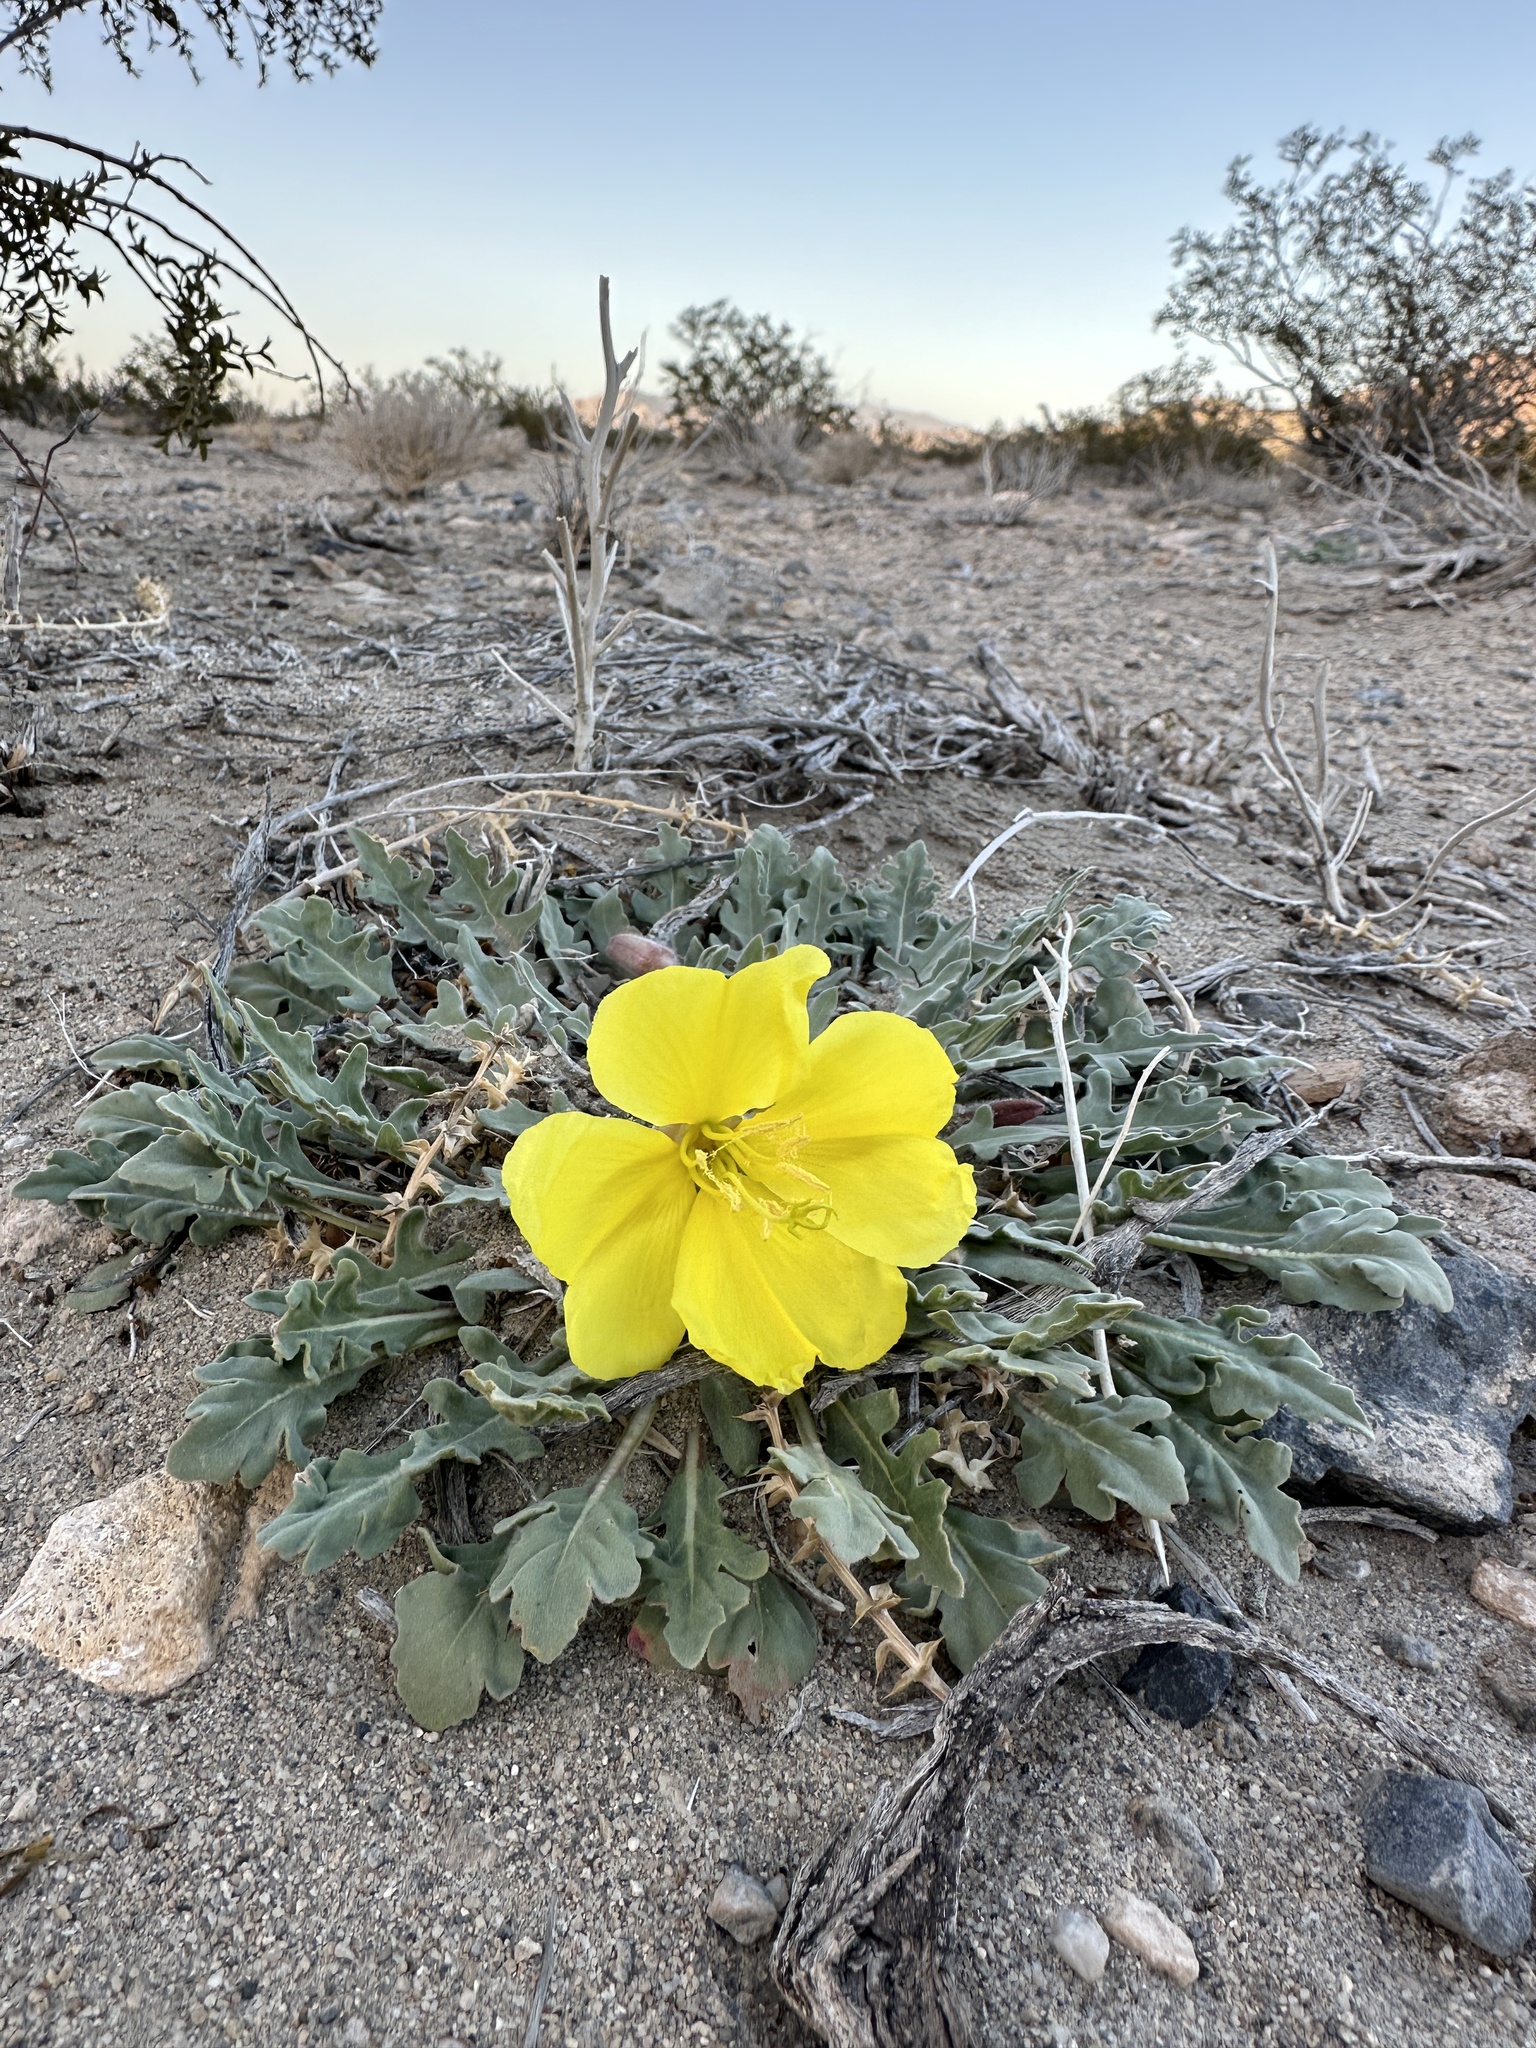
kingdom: Plantae
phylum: Tracheophyta
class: Magnoliopsida
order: Myrtales
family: Onagraceae
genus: Oenothera
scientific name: Oenothera primiveris
